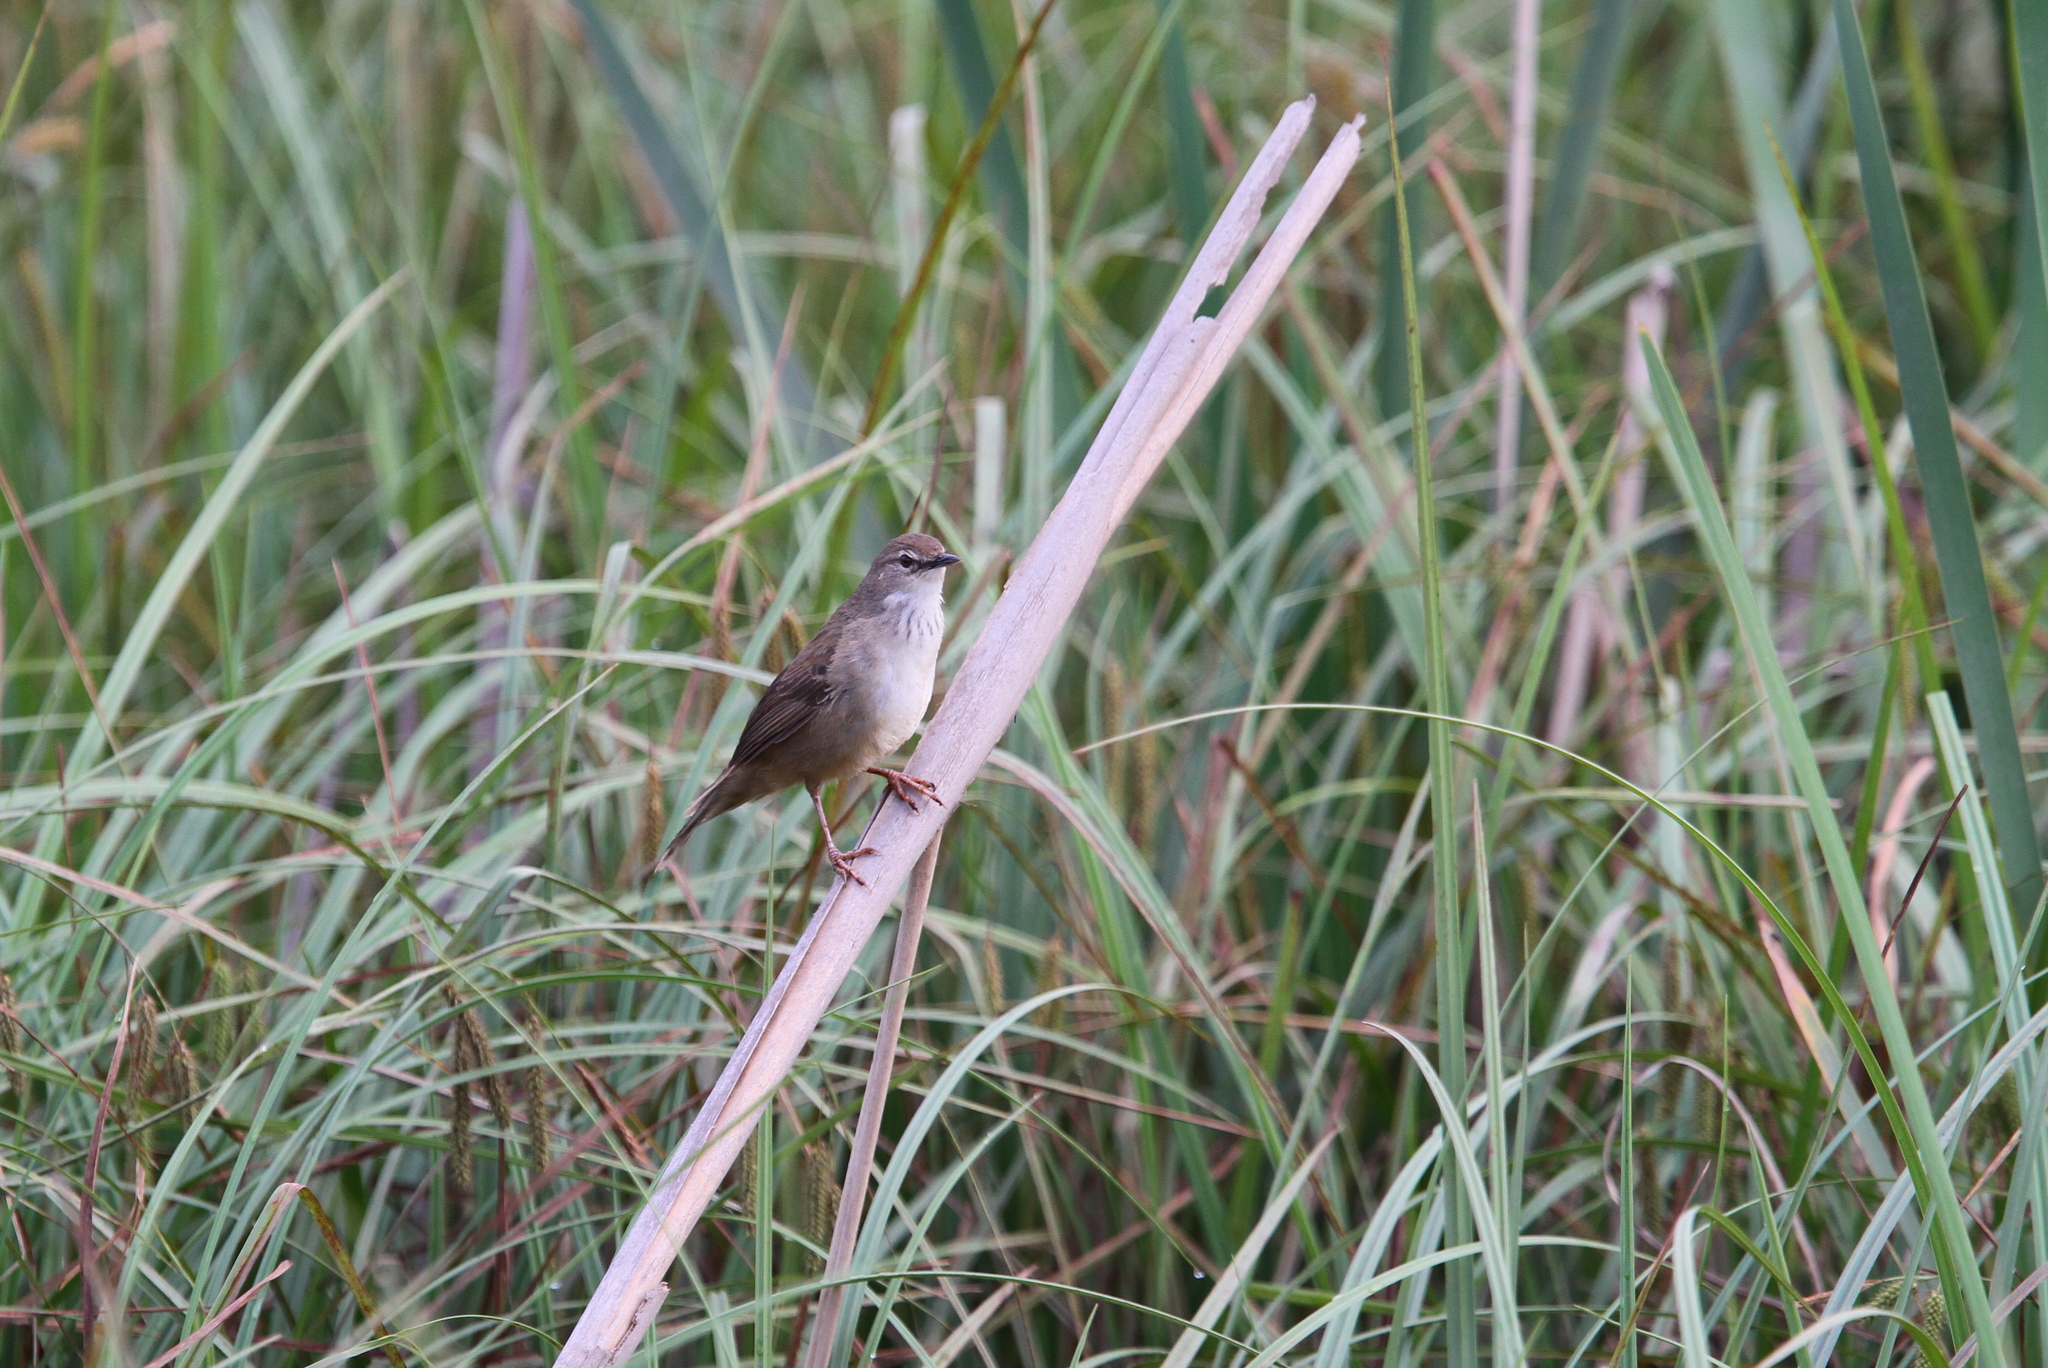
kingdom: Animalia
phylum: Chordata
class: Aves
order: Passeriformes
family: Locustellidae
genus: Bradypterus
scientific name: Bradypterus baboecala
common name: Little rush warbler
